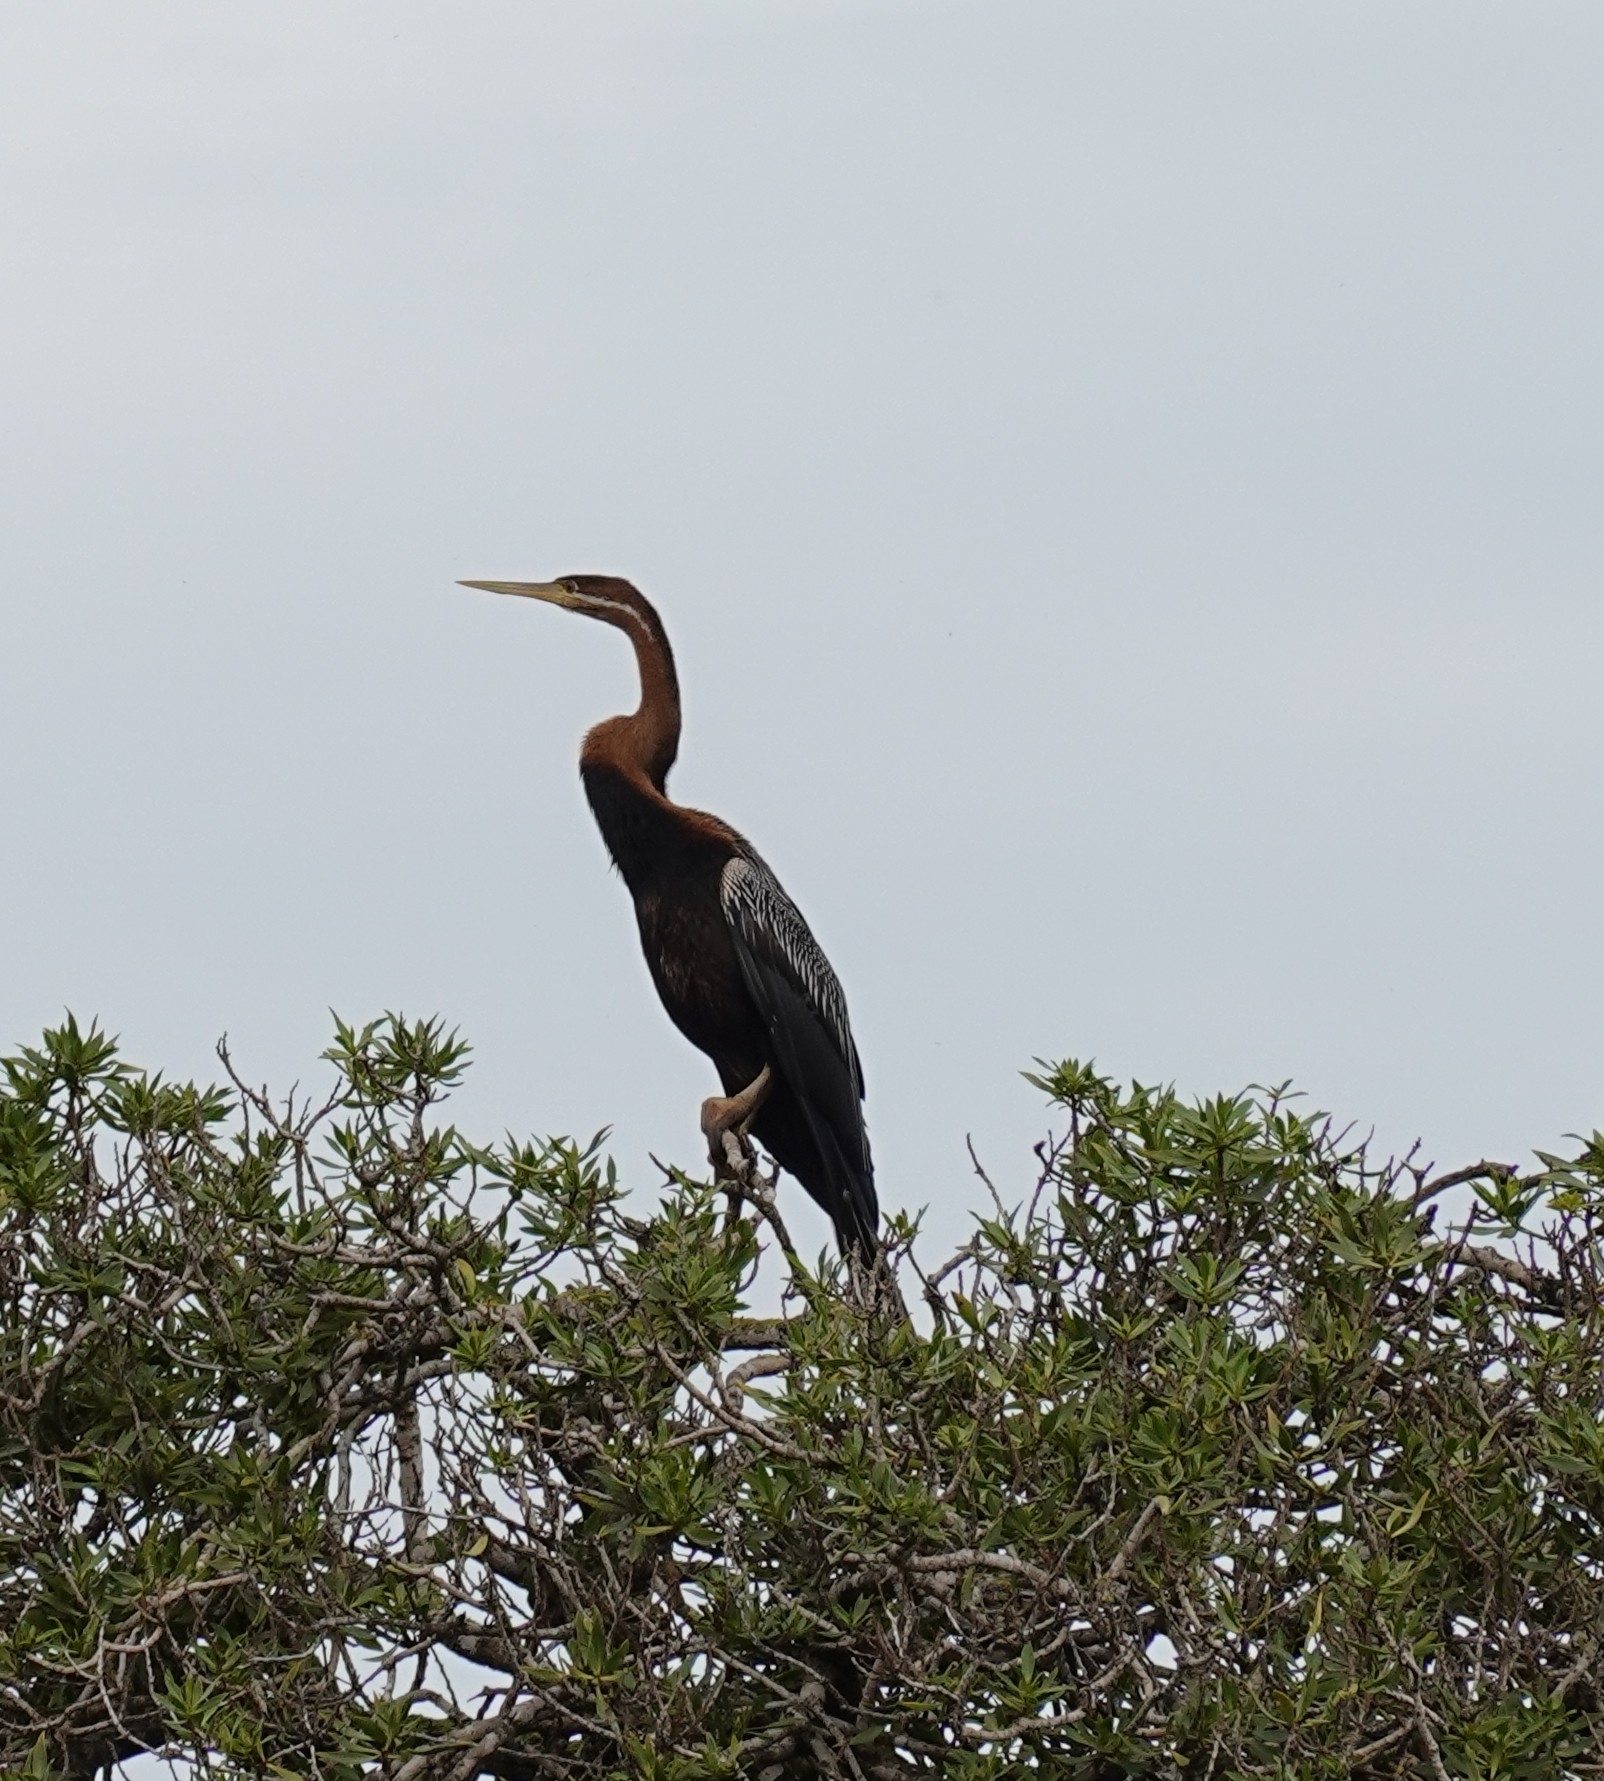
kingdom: Animalia
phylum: Chordata
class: Aves
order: Suliformes
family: Anhingidae
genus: Anhinga
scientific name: Anhinga rufa
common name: African darter
